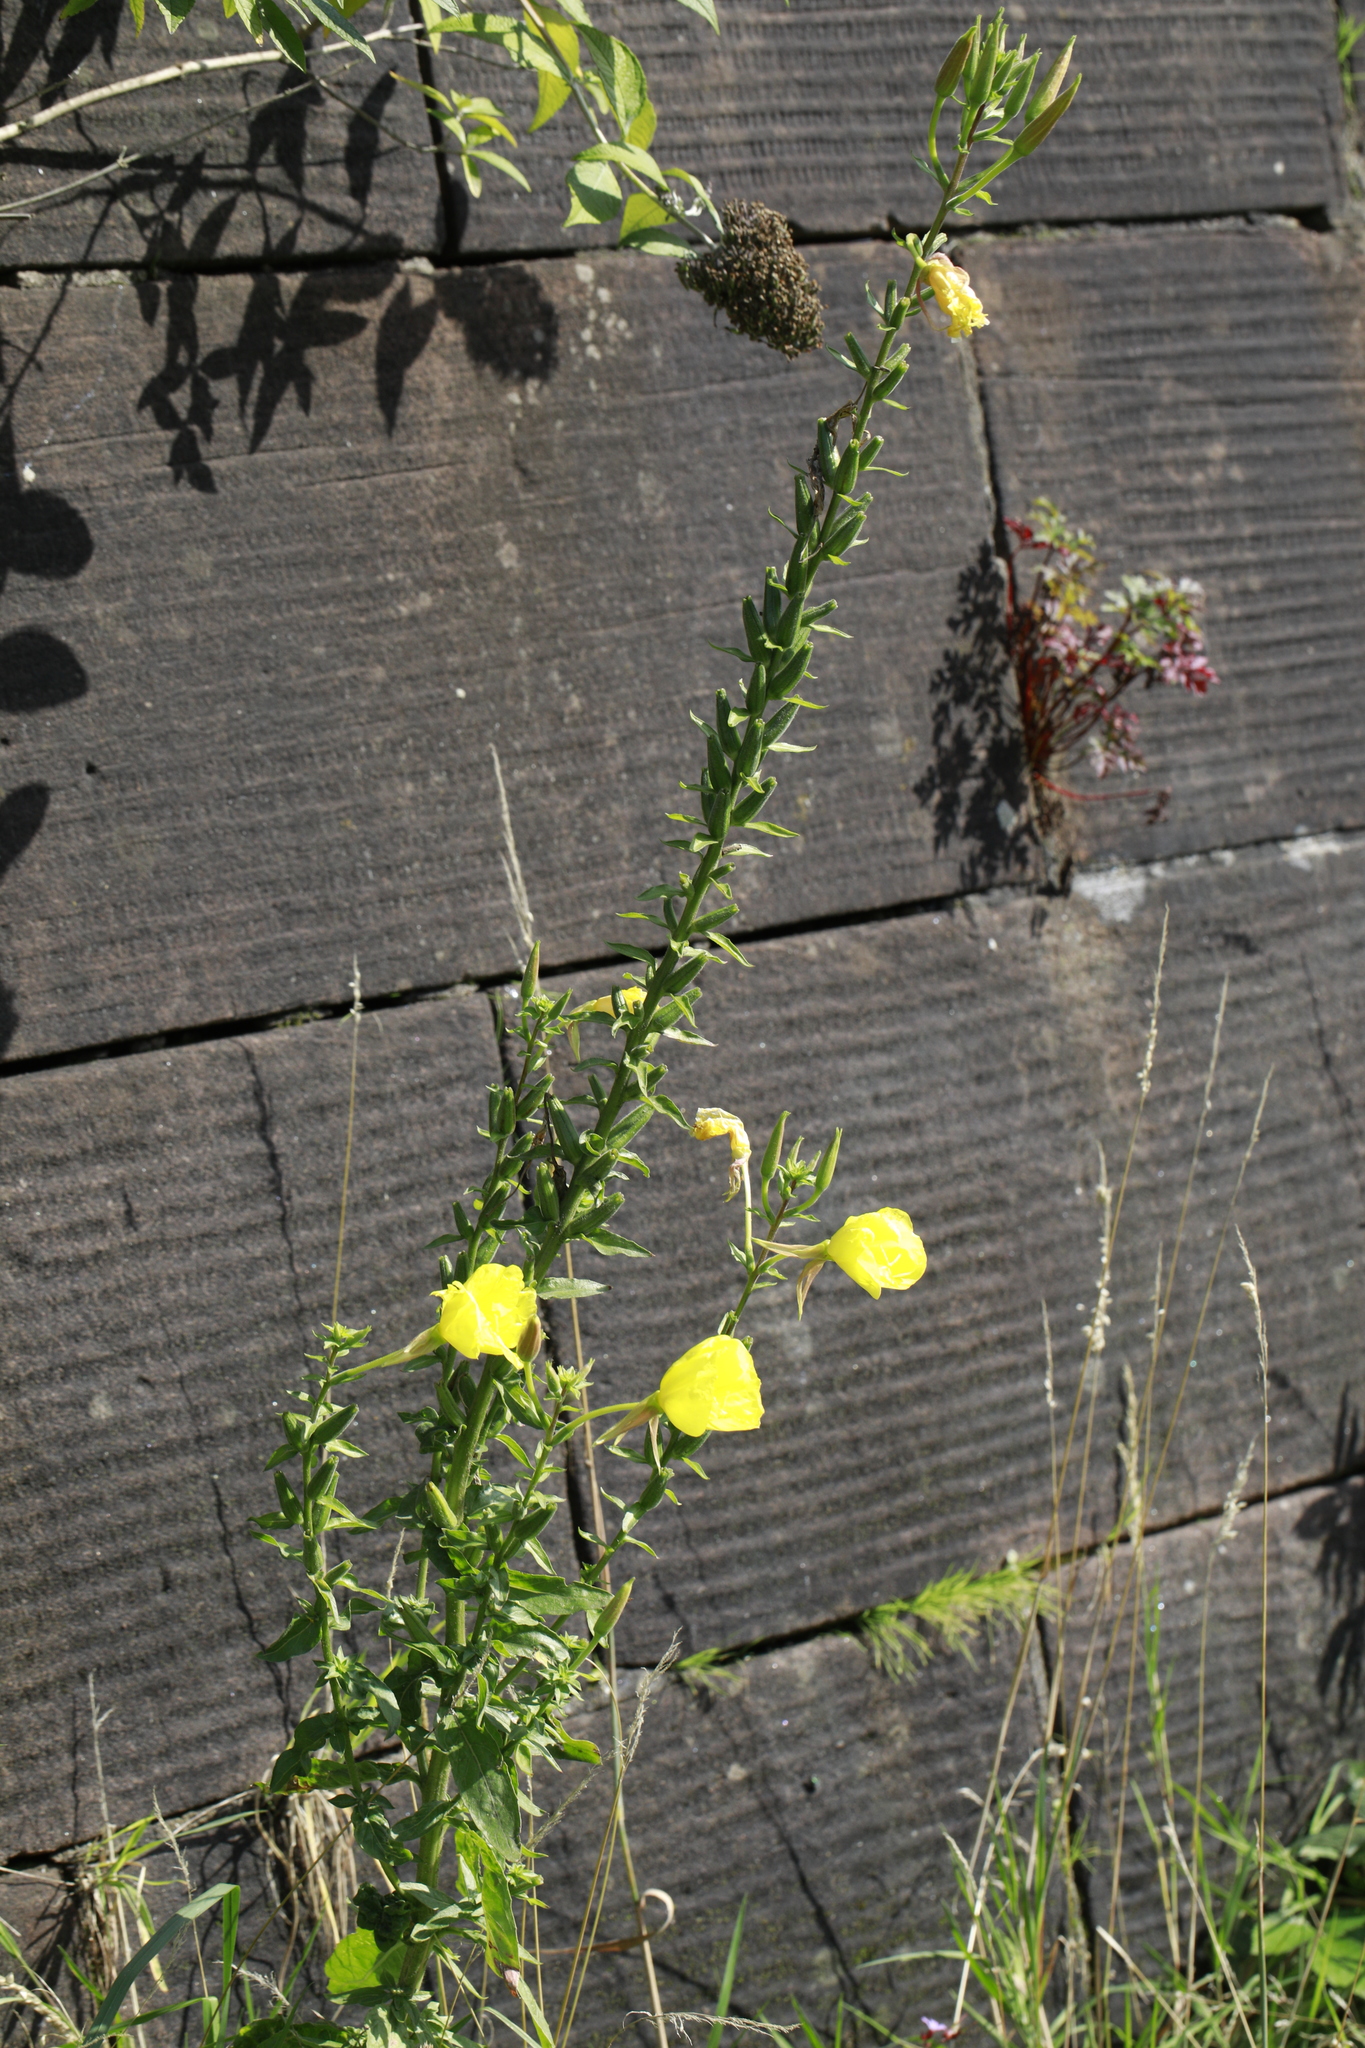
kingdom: Plantae
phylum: Tracheophyta
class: Magnoliopsida
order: Myrtales
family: Onagraceae
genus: Oenothera
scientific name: Oenothera glazioviana
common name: Large-flowered evening-primrose
